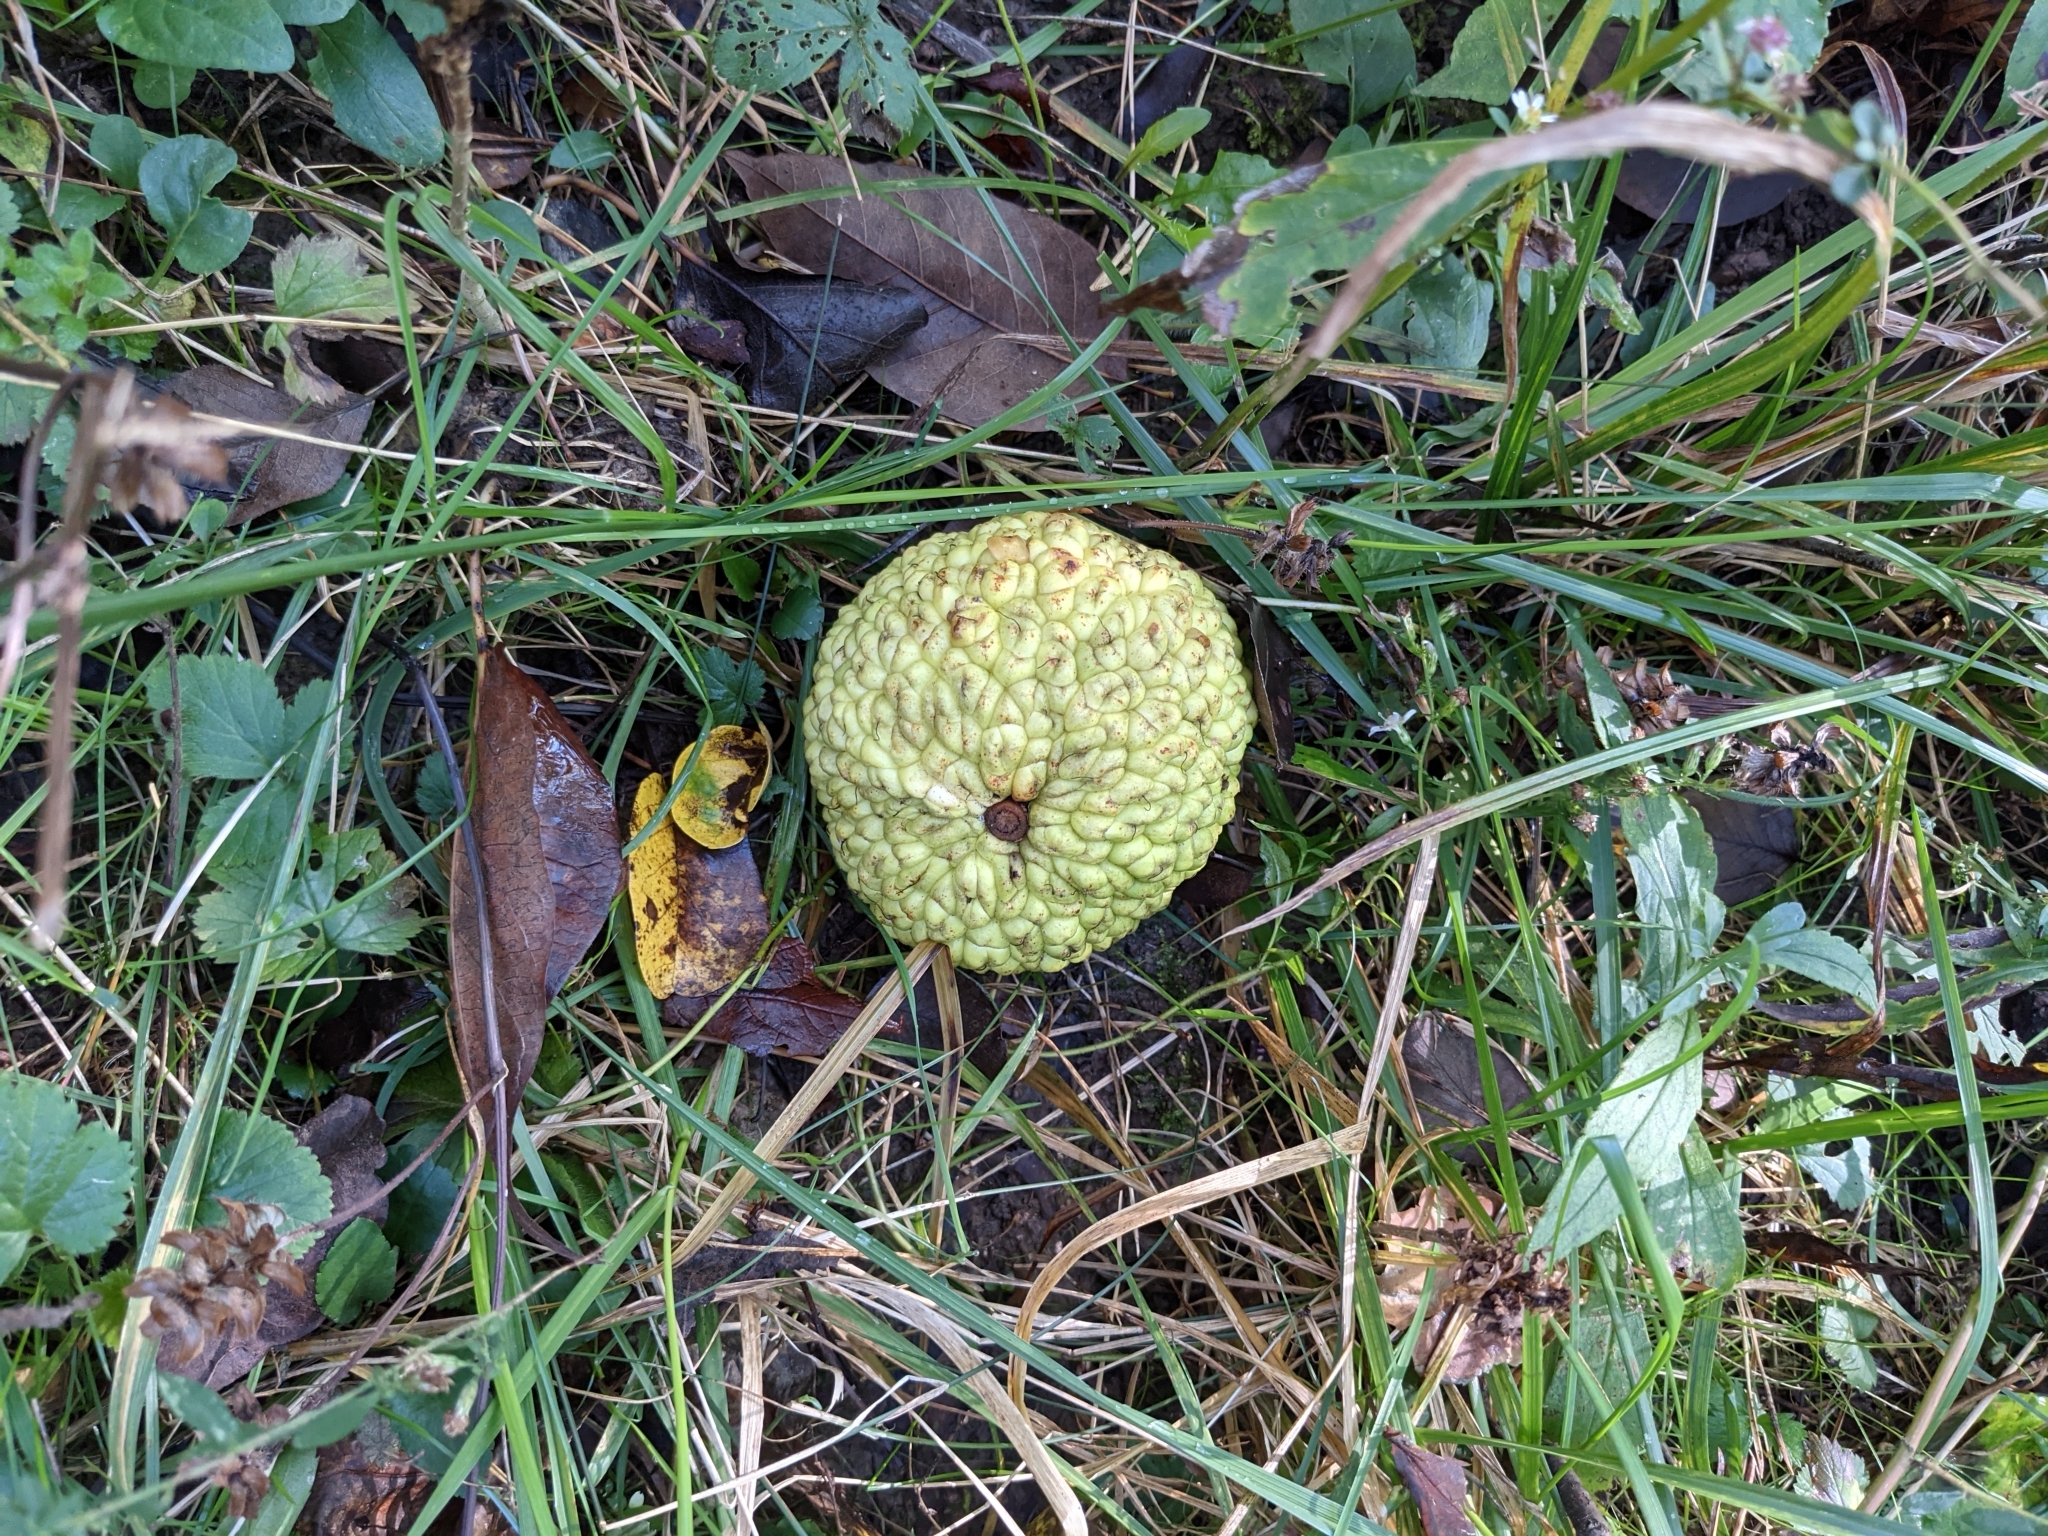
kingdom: Plantae
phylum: Tracheophyta
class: Magnoliopsida
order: Rosales
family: Moraceae
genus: Maclura
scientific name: Maclura pomifera
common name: Osage-orange
